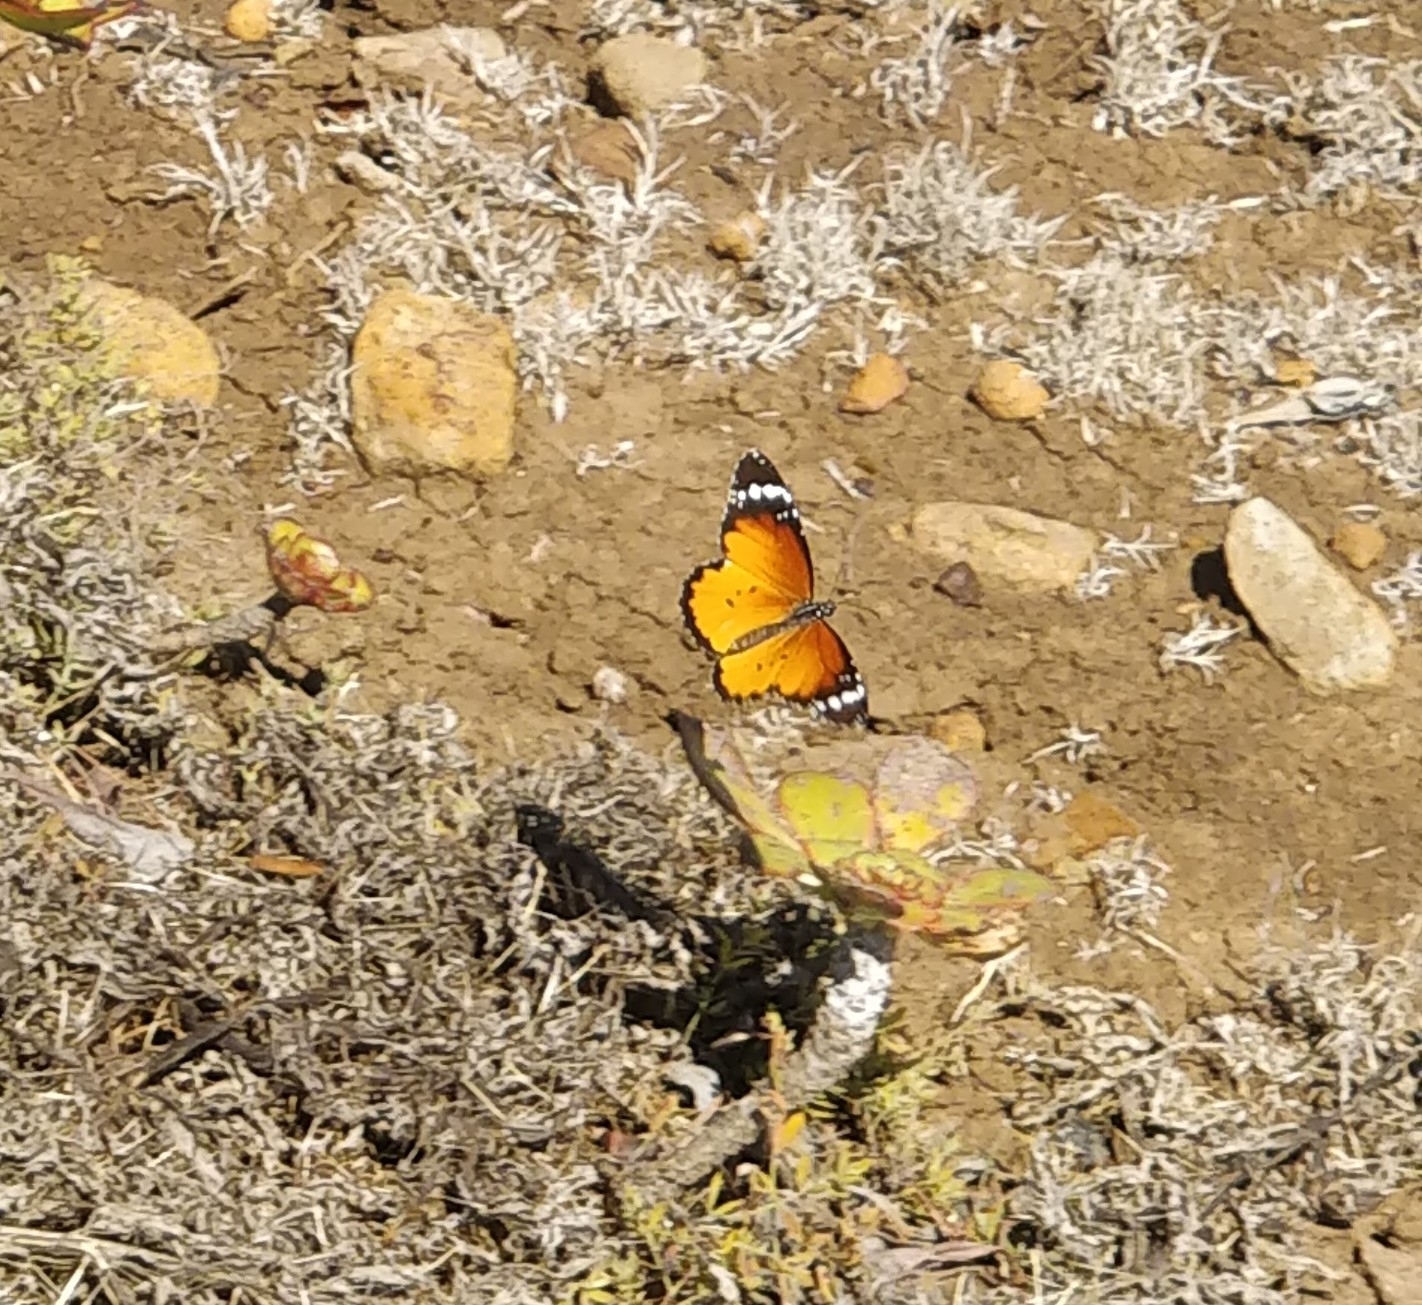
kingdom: Animalia
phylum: Arthropoda
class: Insecta
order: Lepidoptera
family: Nymphalidae
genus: Danaus
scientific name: Danaus chrysippus
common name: Plain tiger
